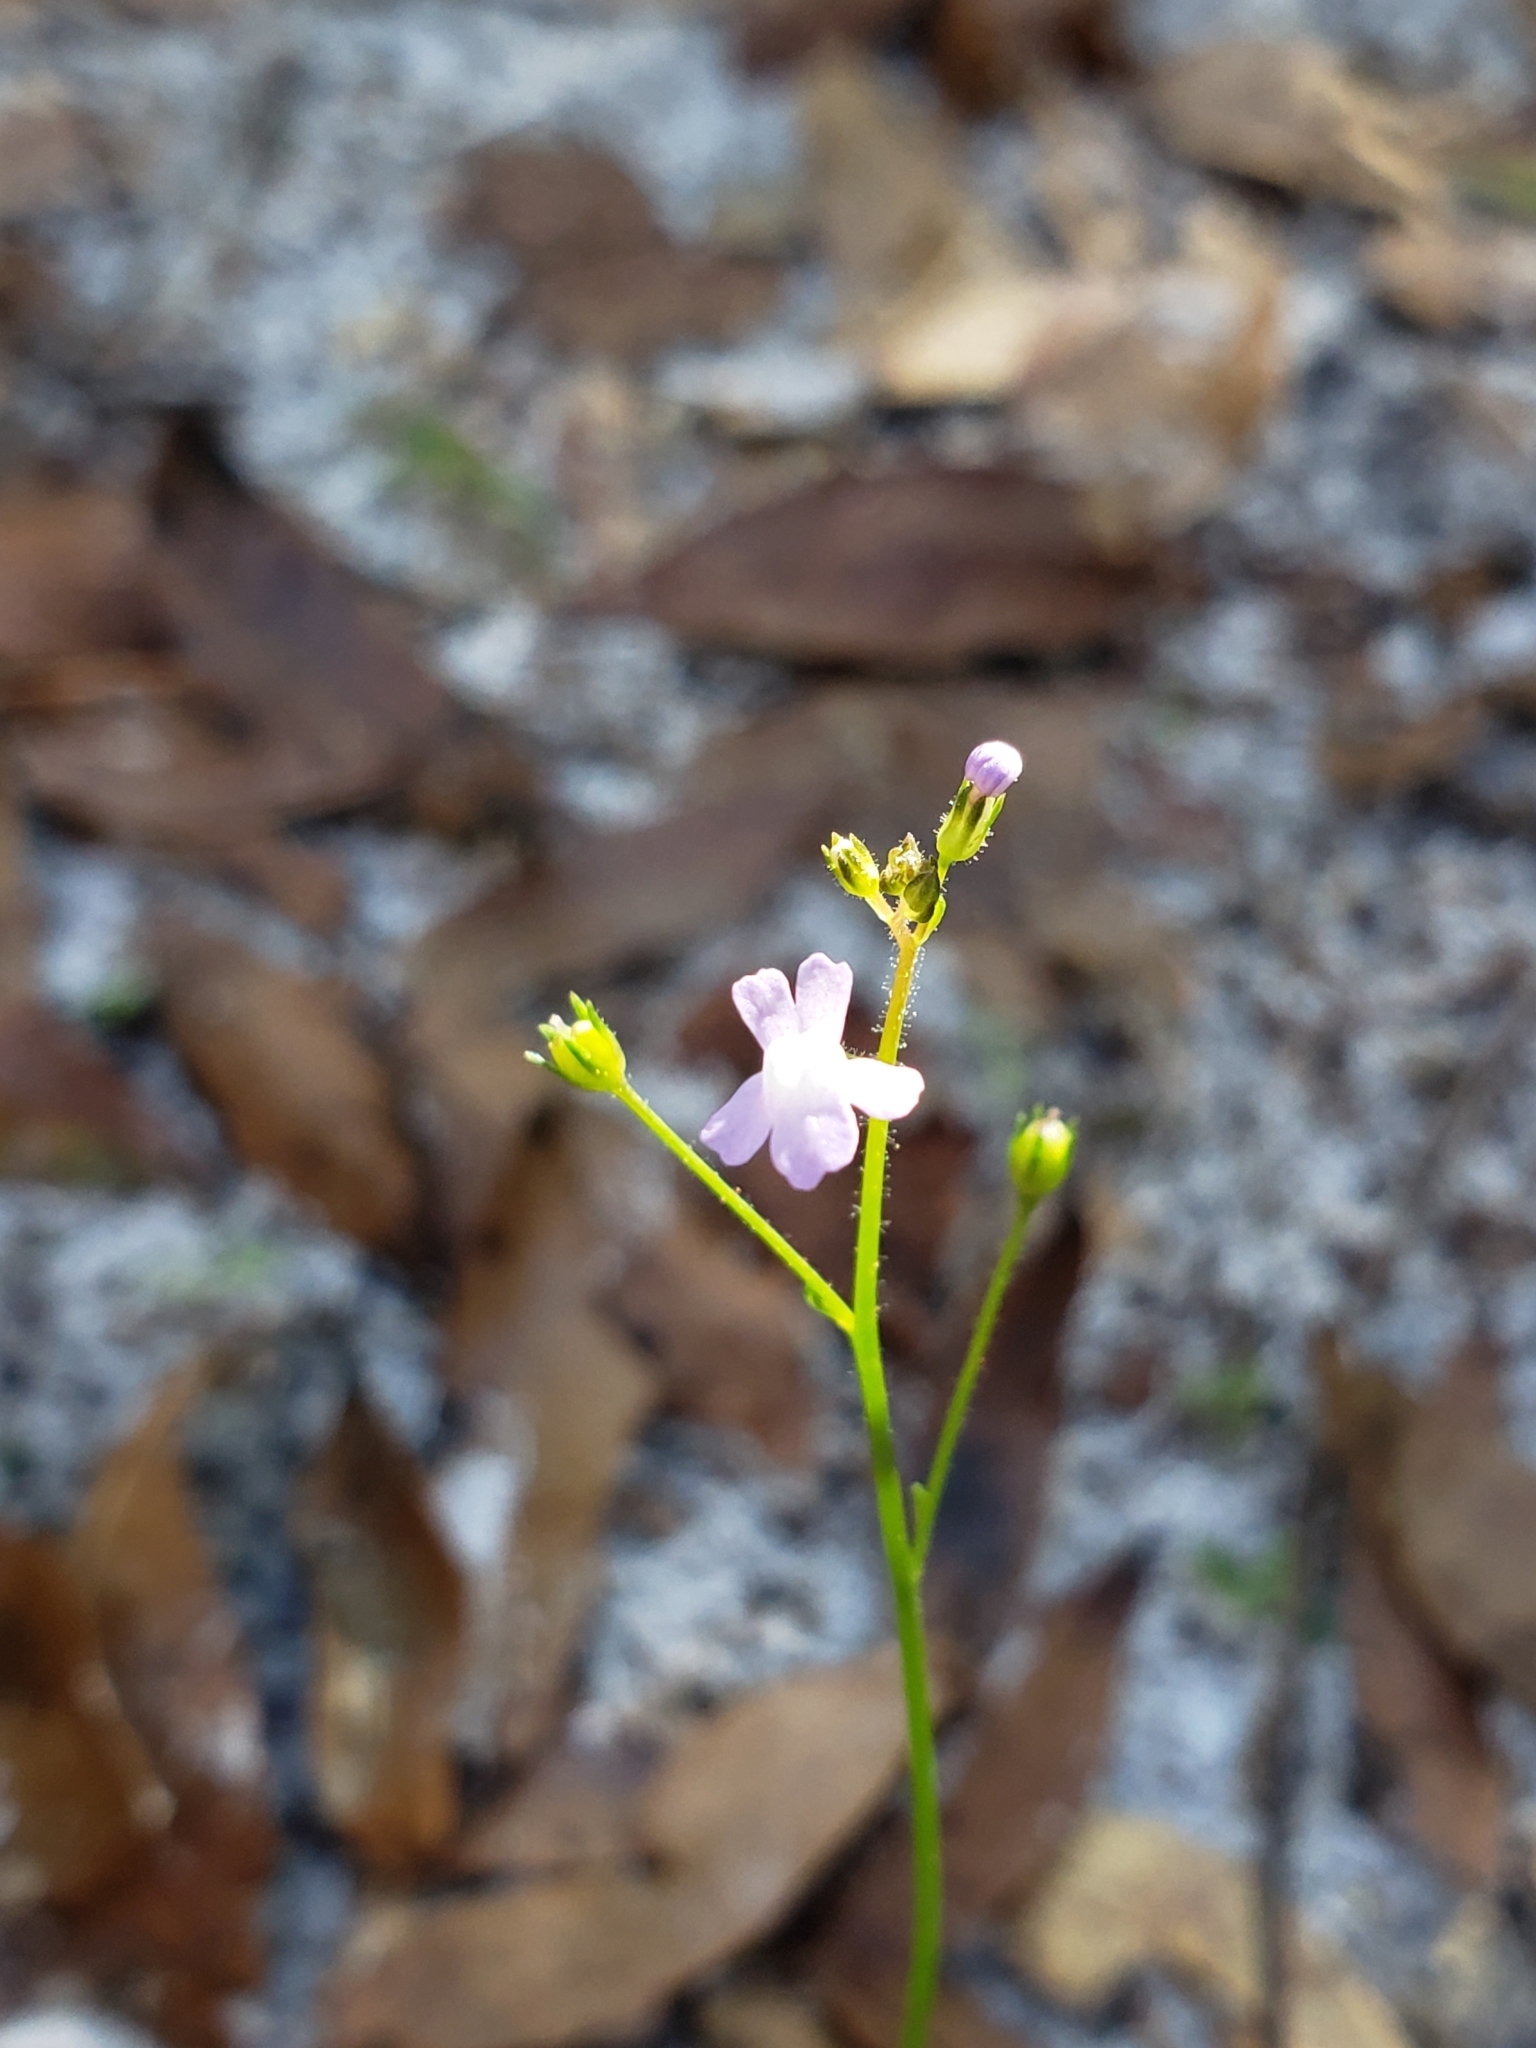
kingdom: Plantae
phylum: Tracheophyta
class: Magnoliopsida
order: Lamiales
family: Plantaginaceae
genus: Nuttallanthus
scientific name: Nuttallanthus floridanus
